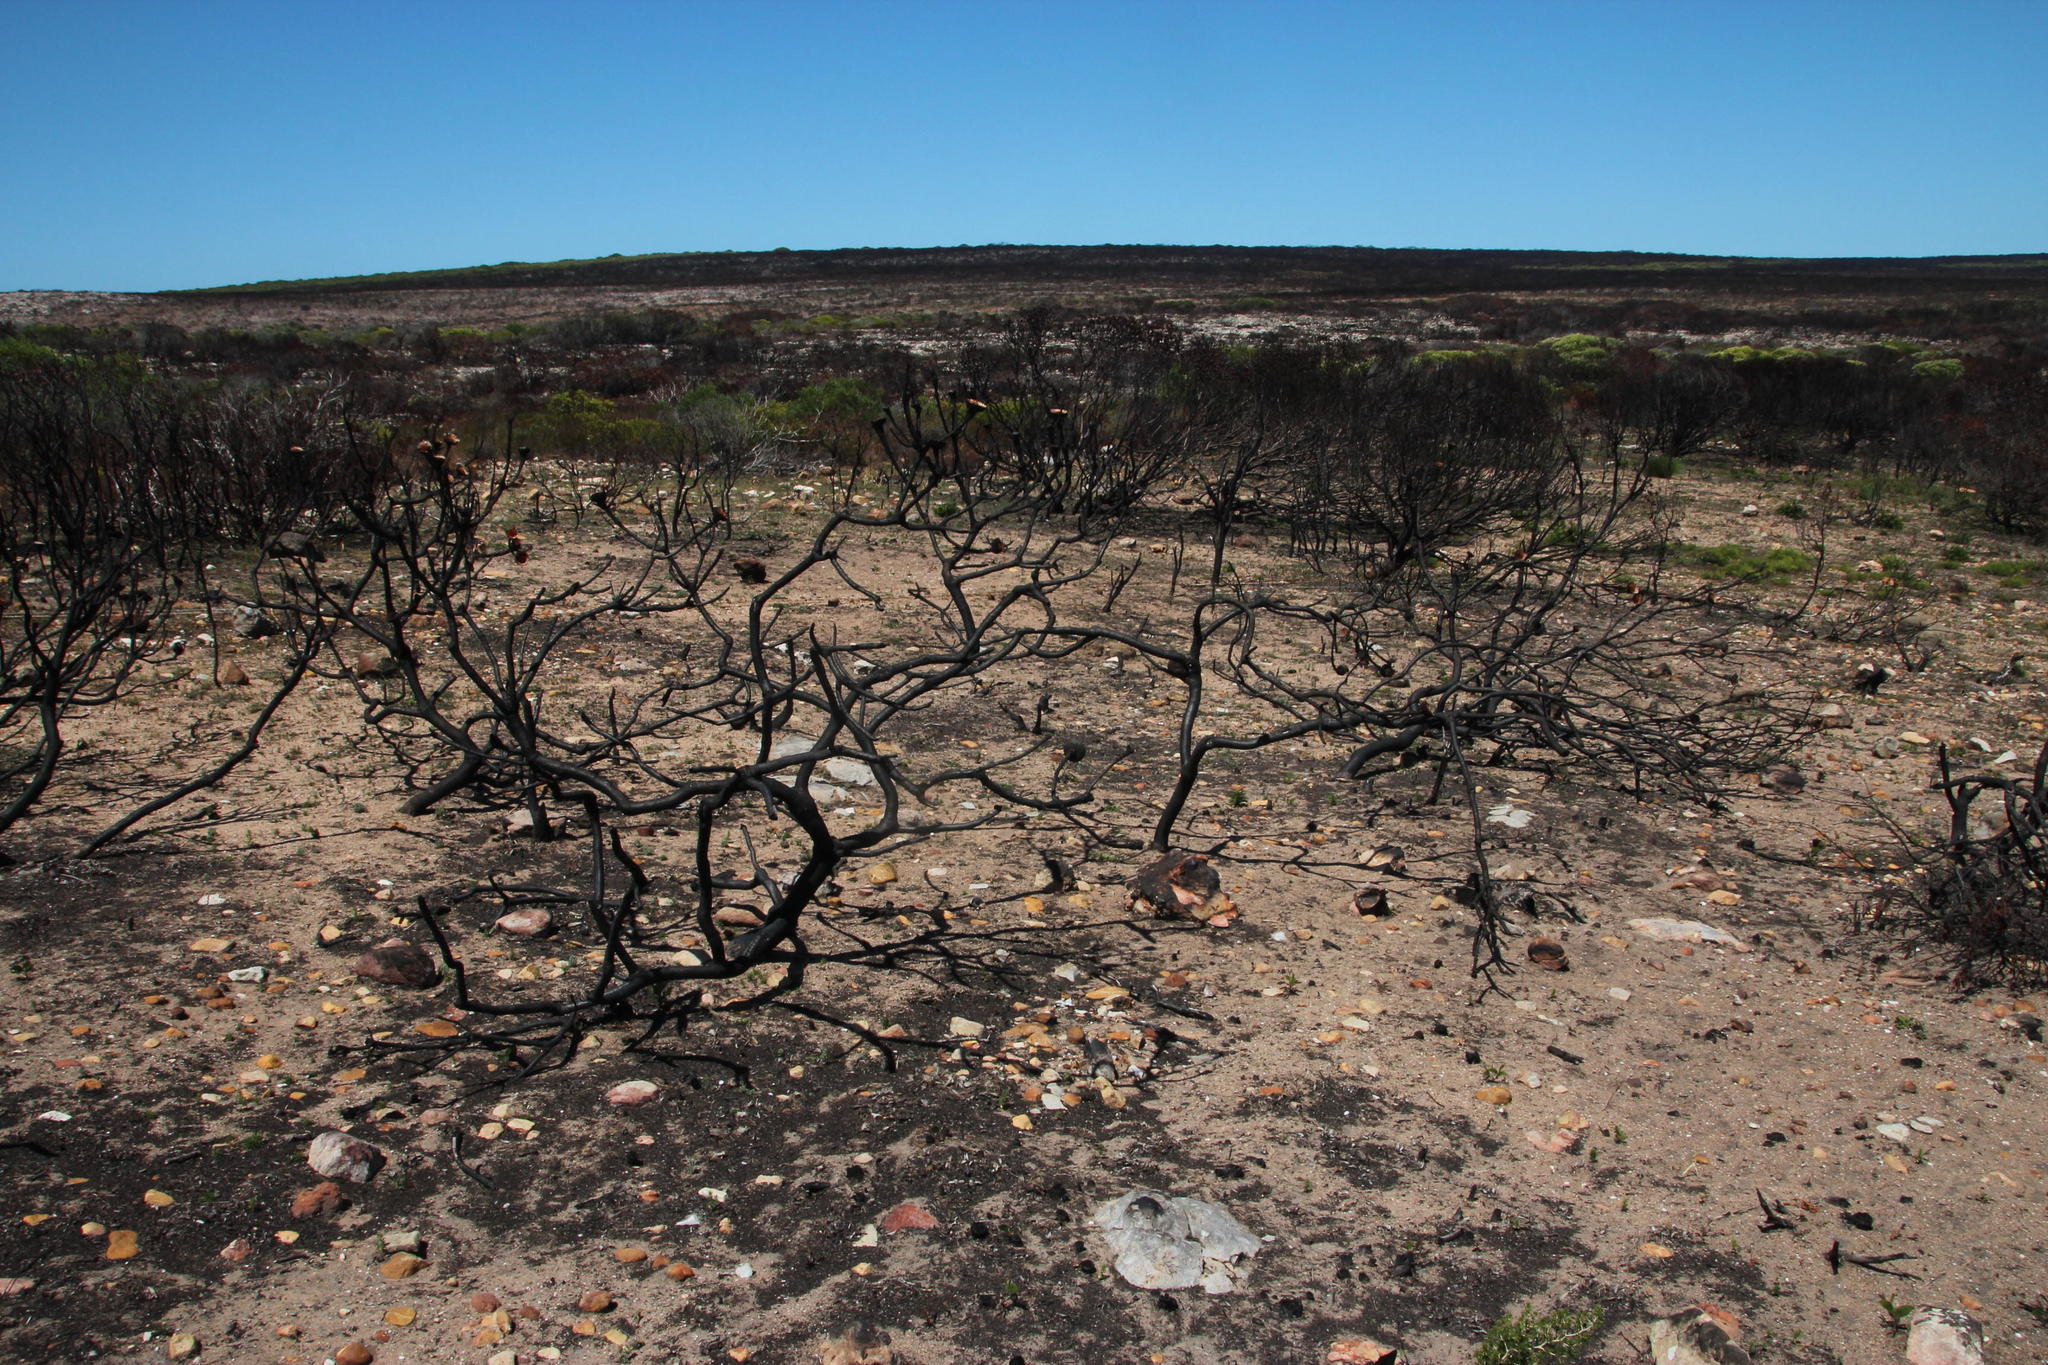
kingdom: Plantae
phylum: Tracheophyta
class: Magnoliopsida
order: Proteales
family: Proteaceae
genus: Protea
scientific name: Protea obtusifolia
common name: Bredasdorp sugarbush
